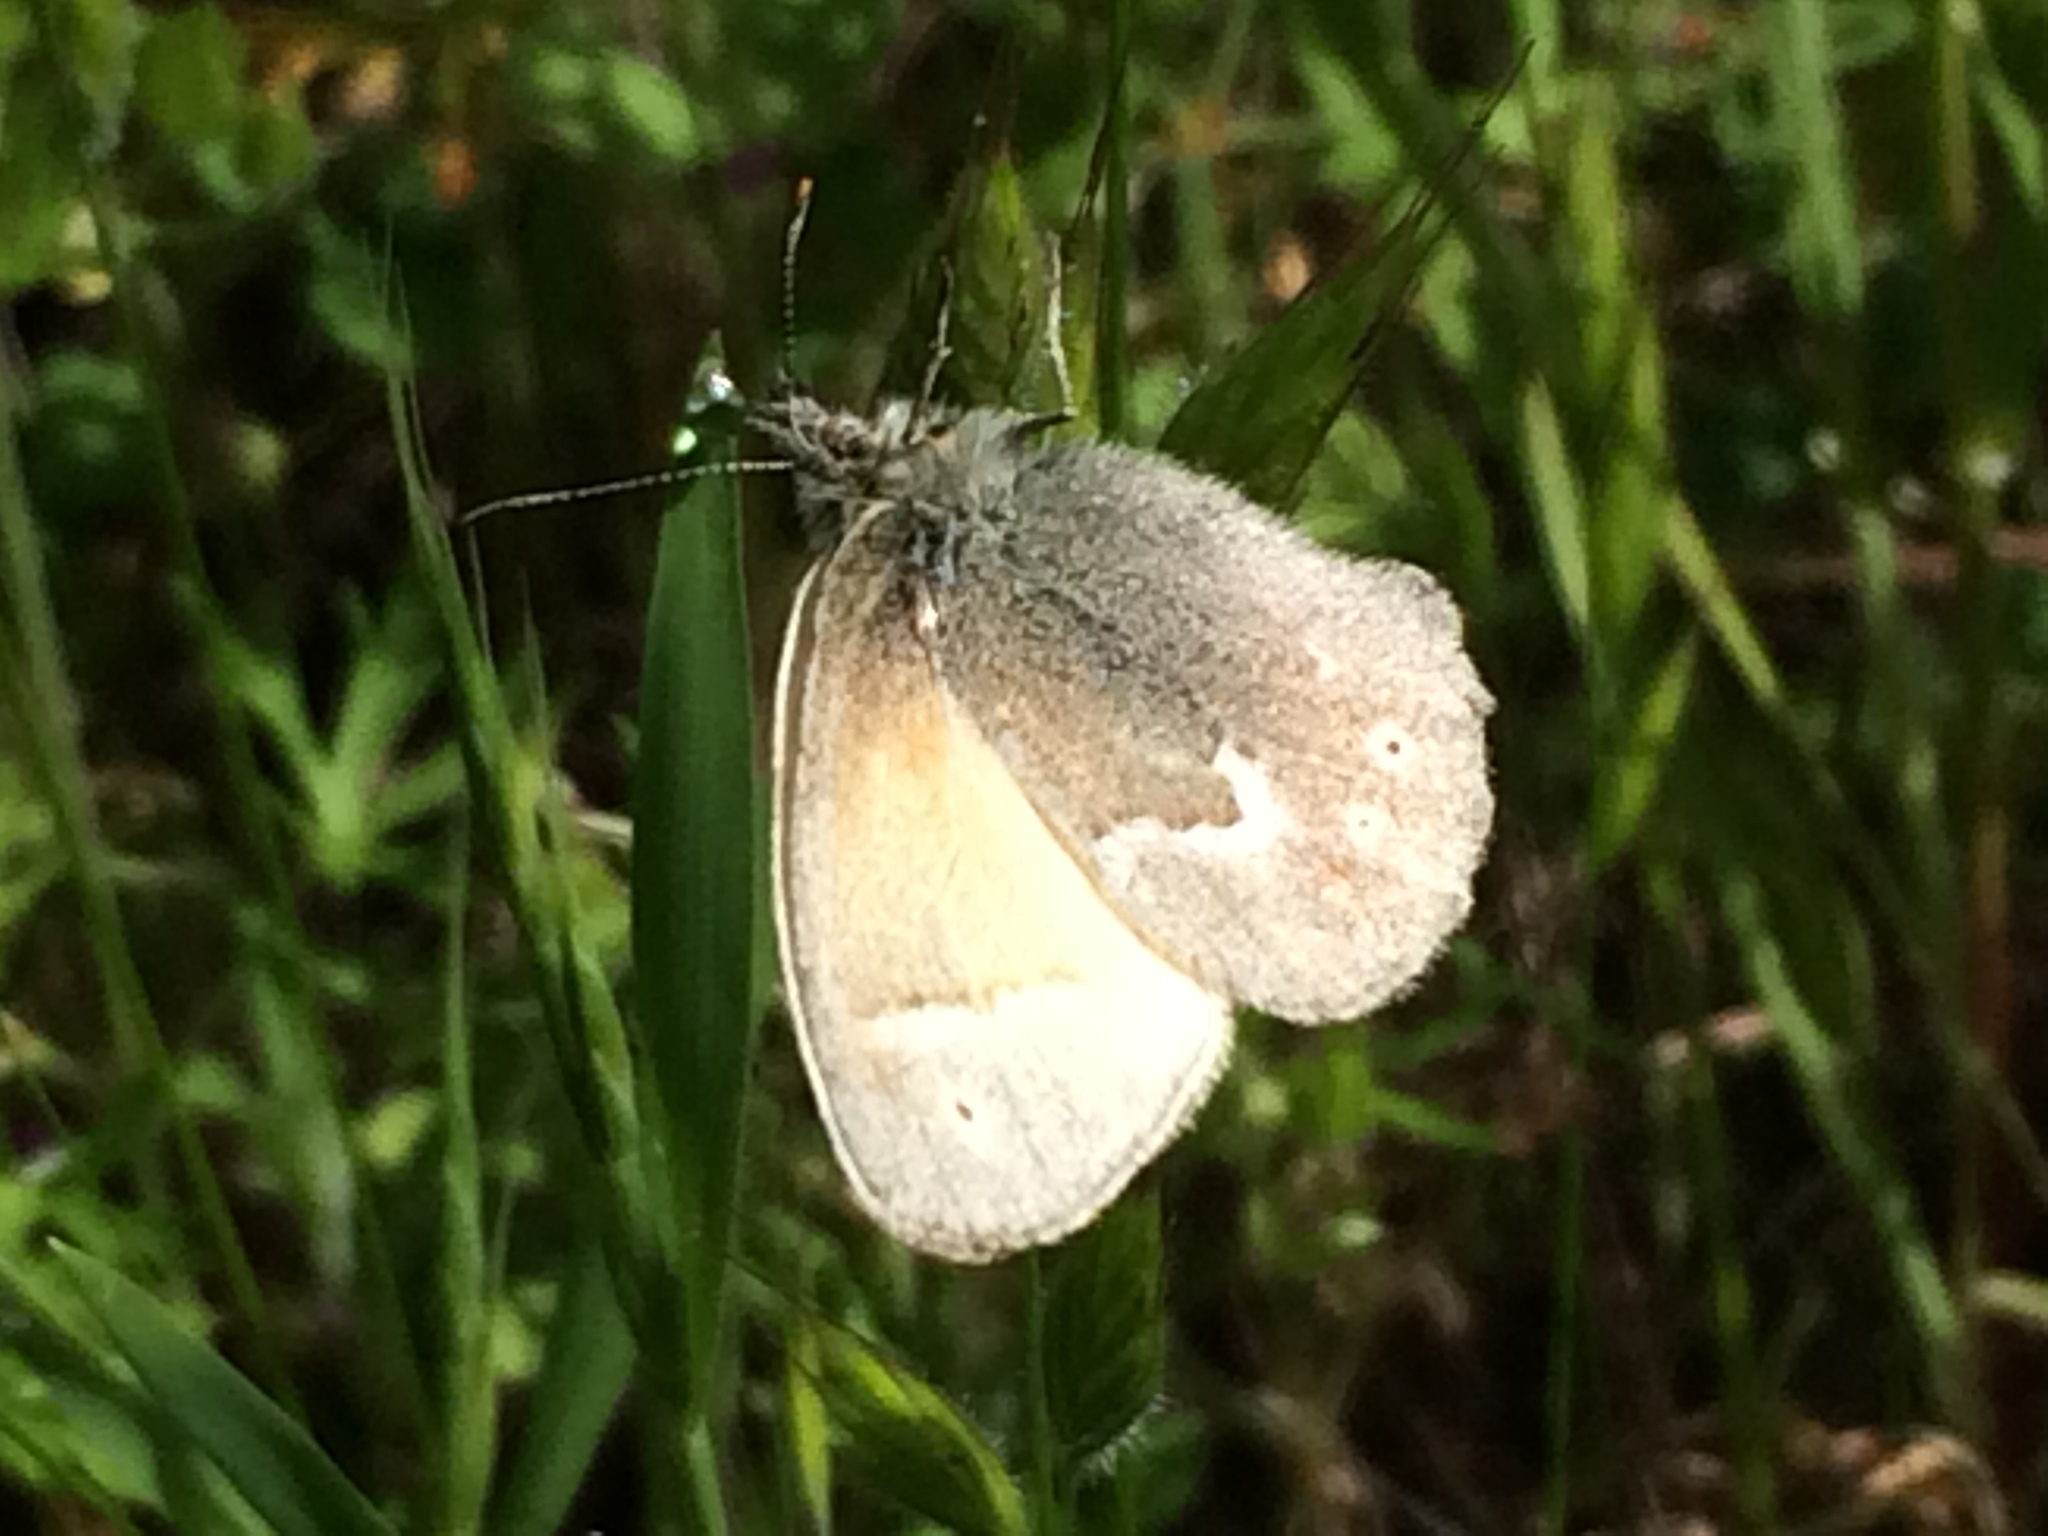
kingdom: Animalia
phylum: Arthropoda
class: Insecta
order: Lepidoptera
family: Nymphalidae
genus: Coenonympha
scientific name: Coenonympha california
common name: Common ringlet
